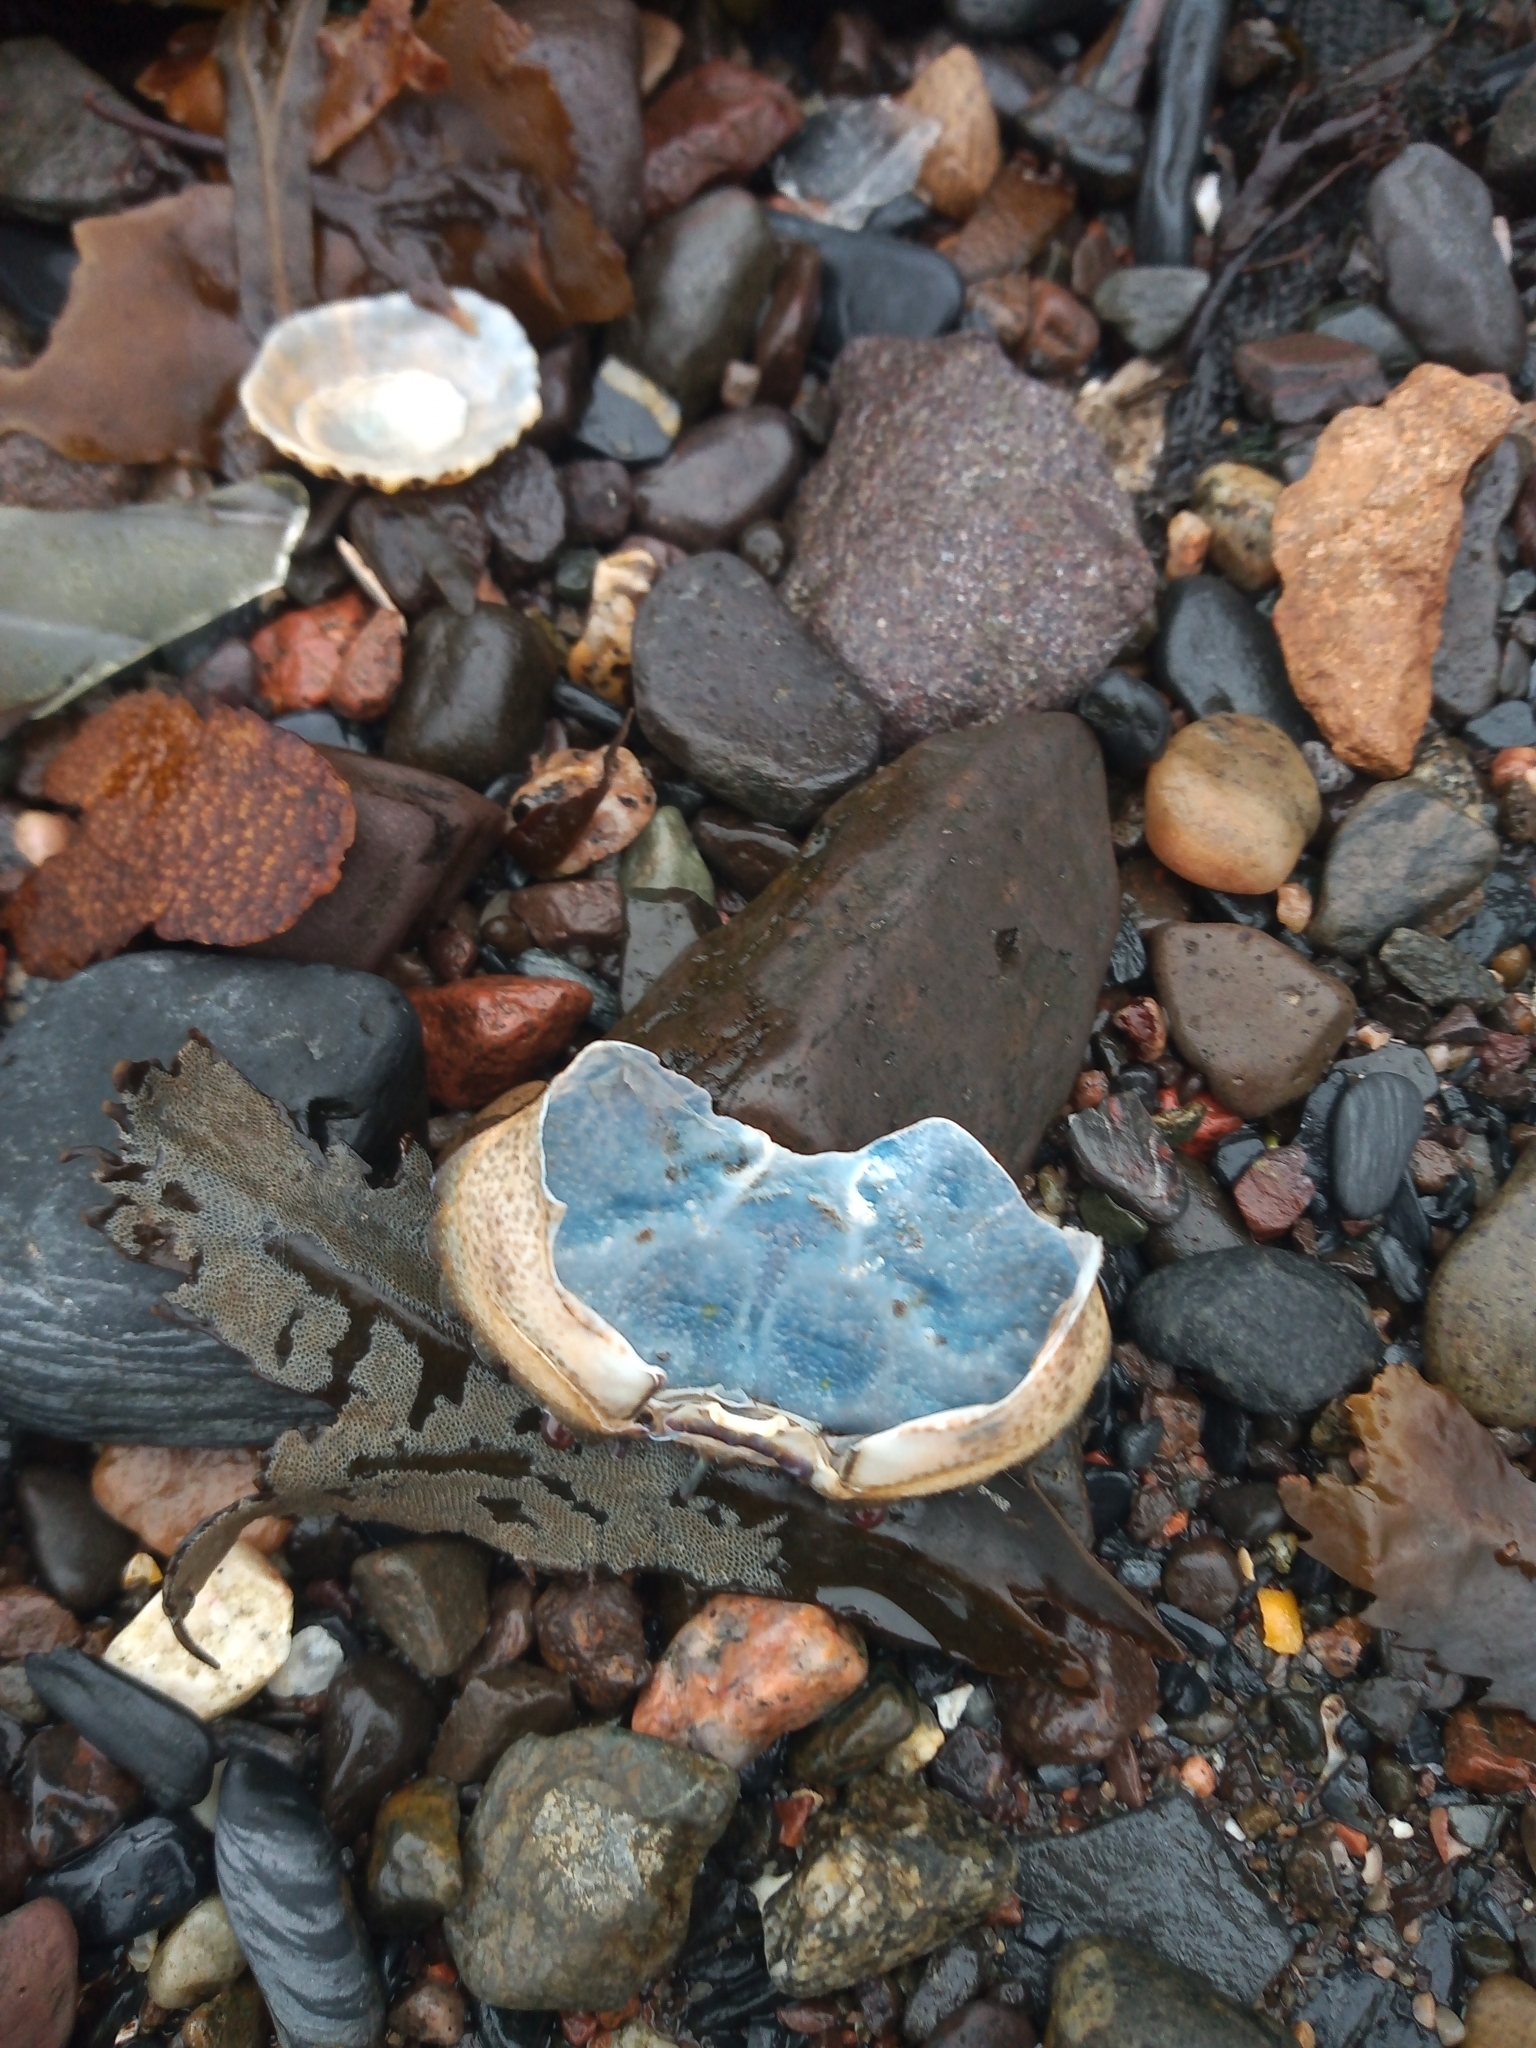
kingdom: Animalia
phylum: Arthropoda
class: Malacostraca
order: Decapoda
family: Polybiidae
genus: Necora
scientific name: Necora puber
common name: Velvet swimming crab
